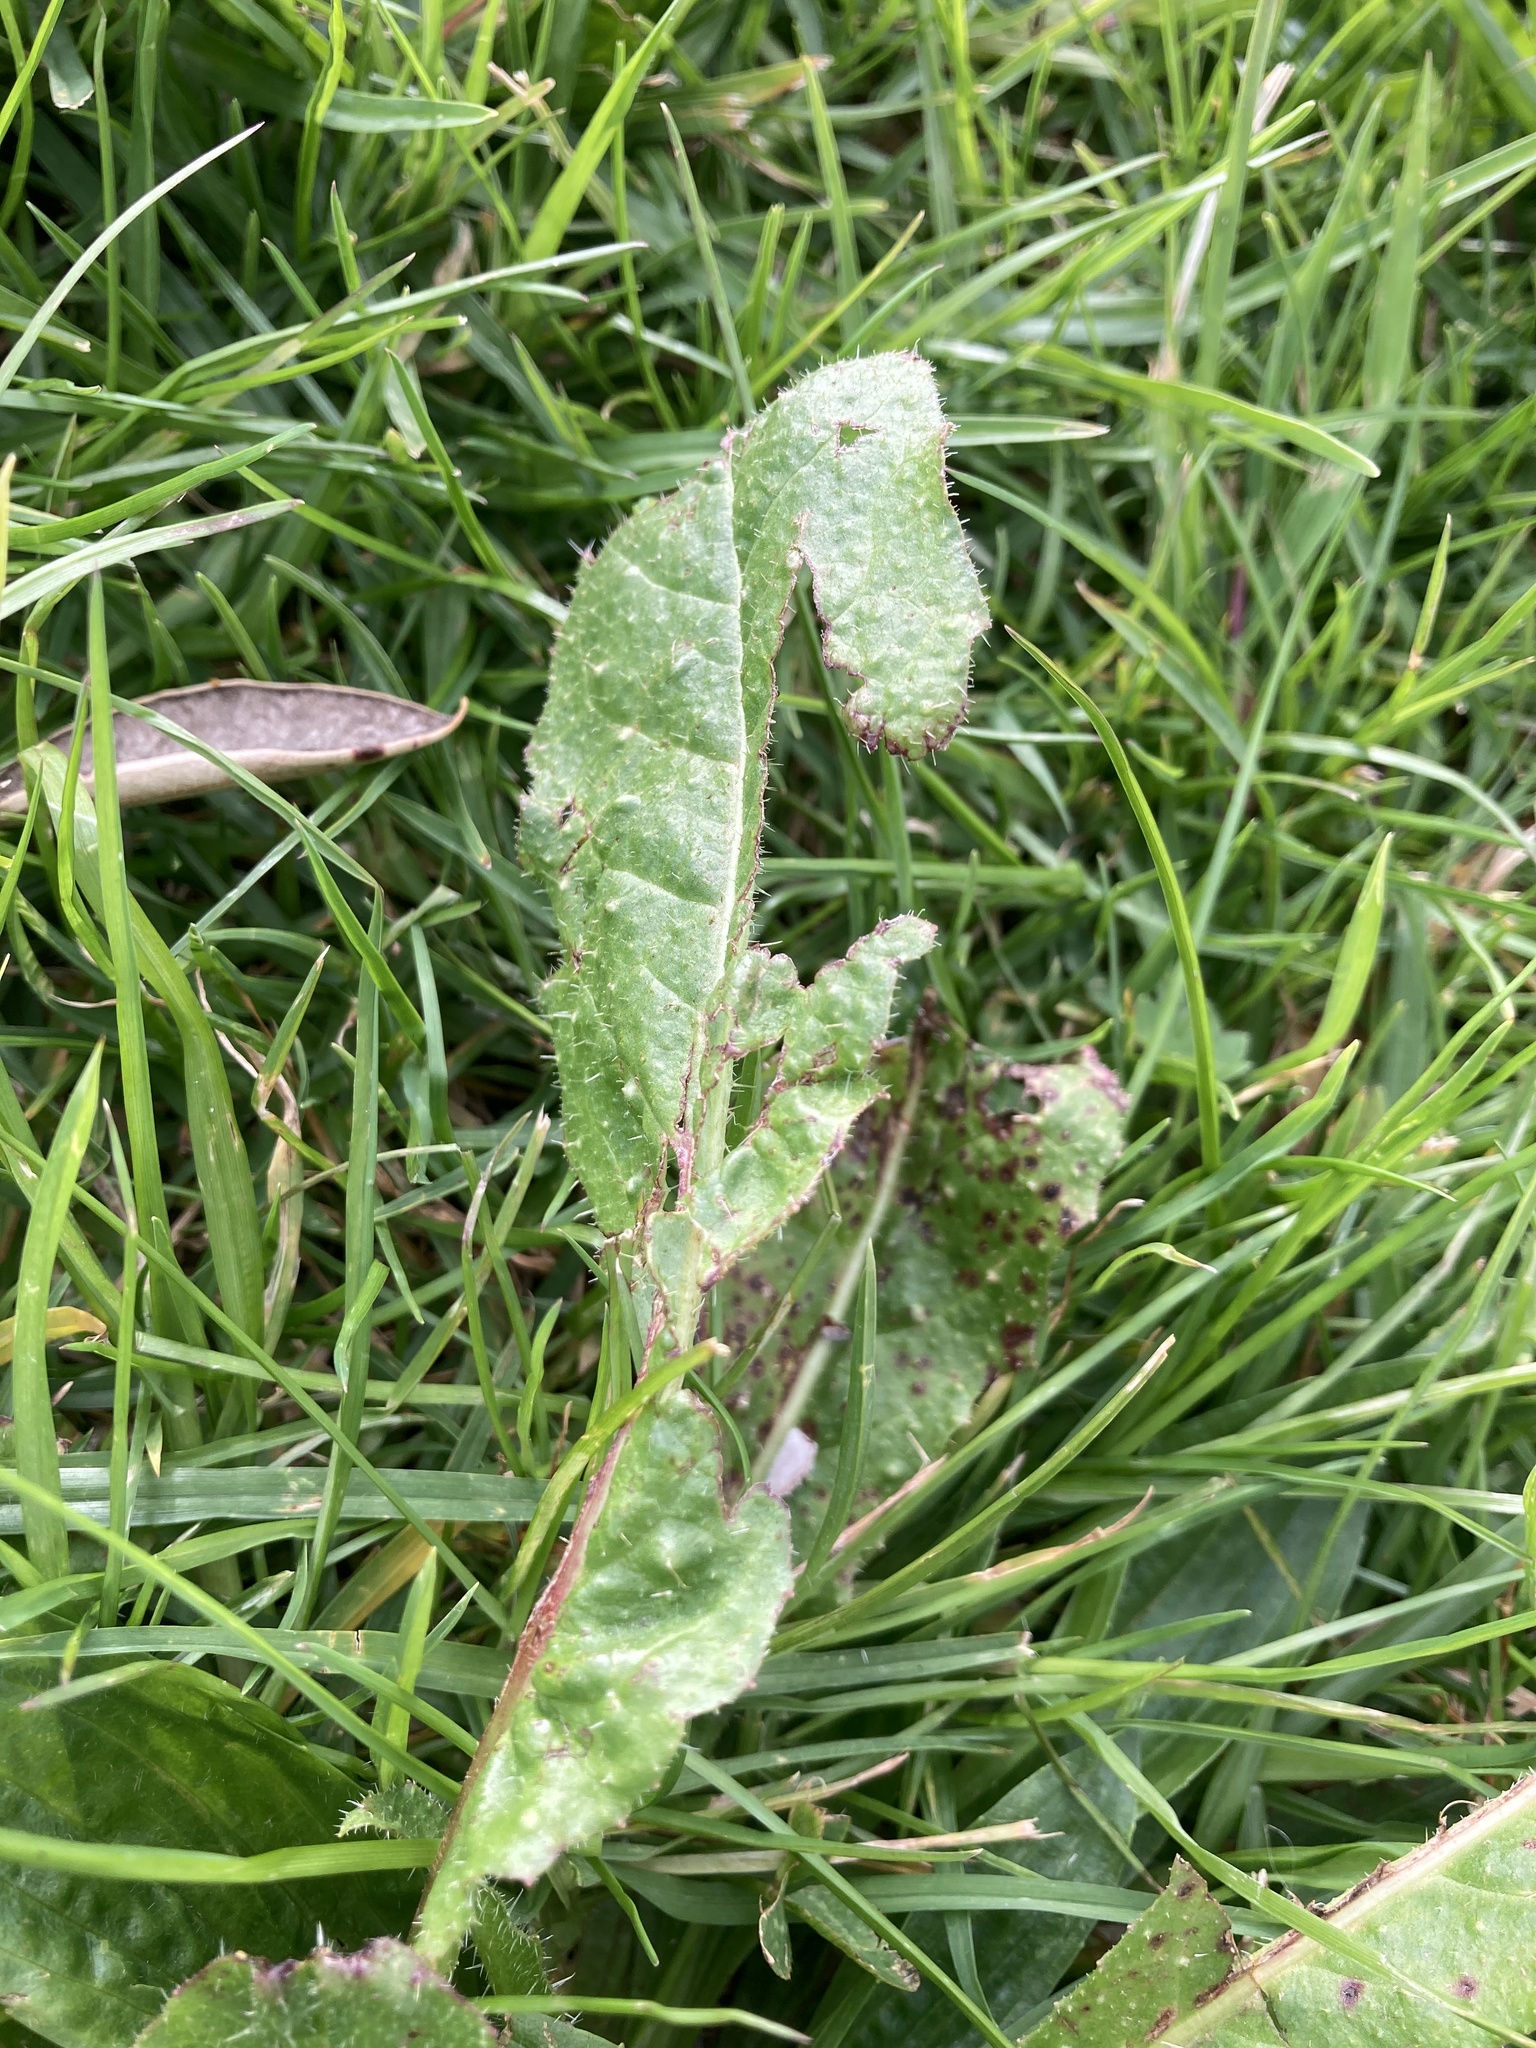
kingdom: Plantae
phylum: Tracheophyta
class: Magnoliopsida
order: Asterales
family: Asteraceae
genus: Helminthotheca
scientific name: Helminthotheca echioides
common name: Ox-tongue
